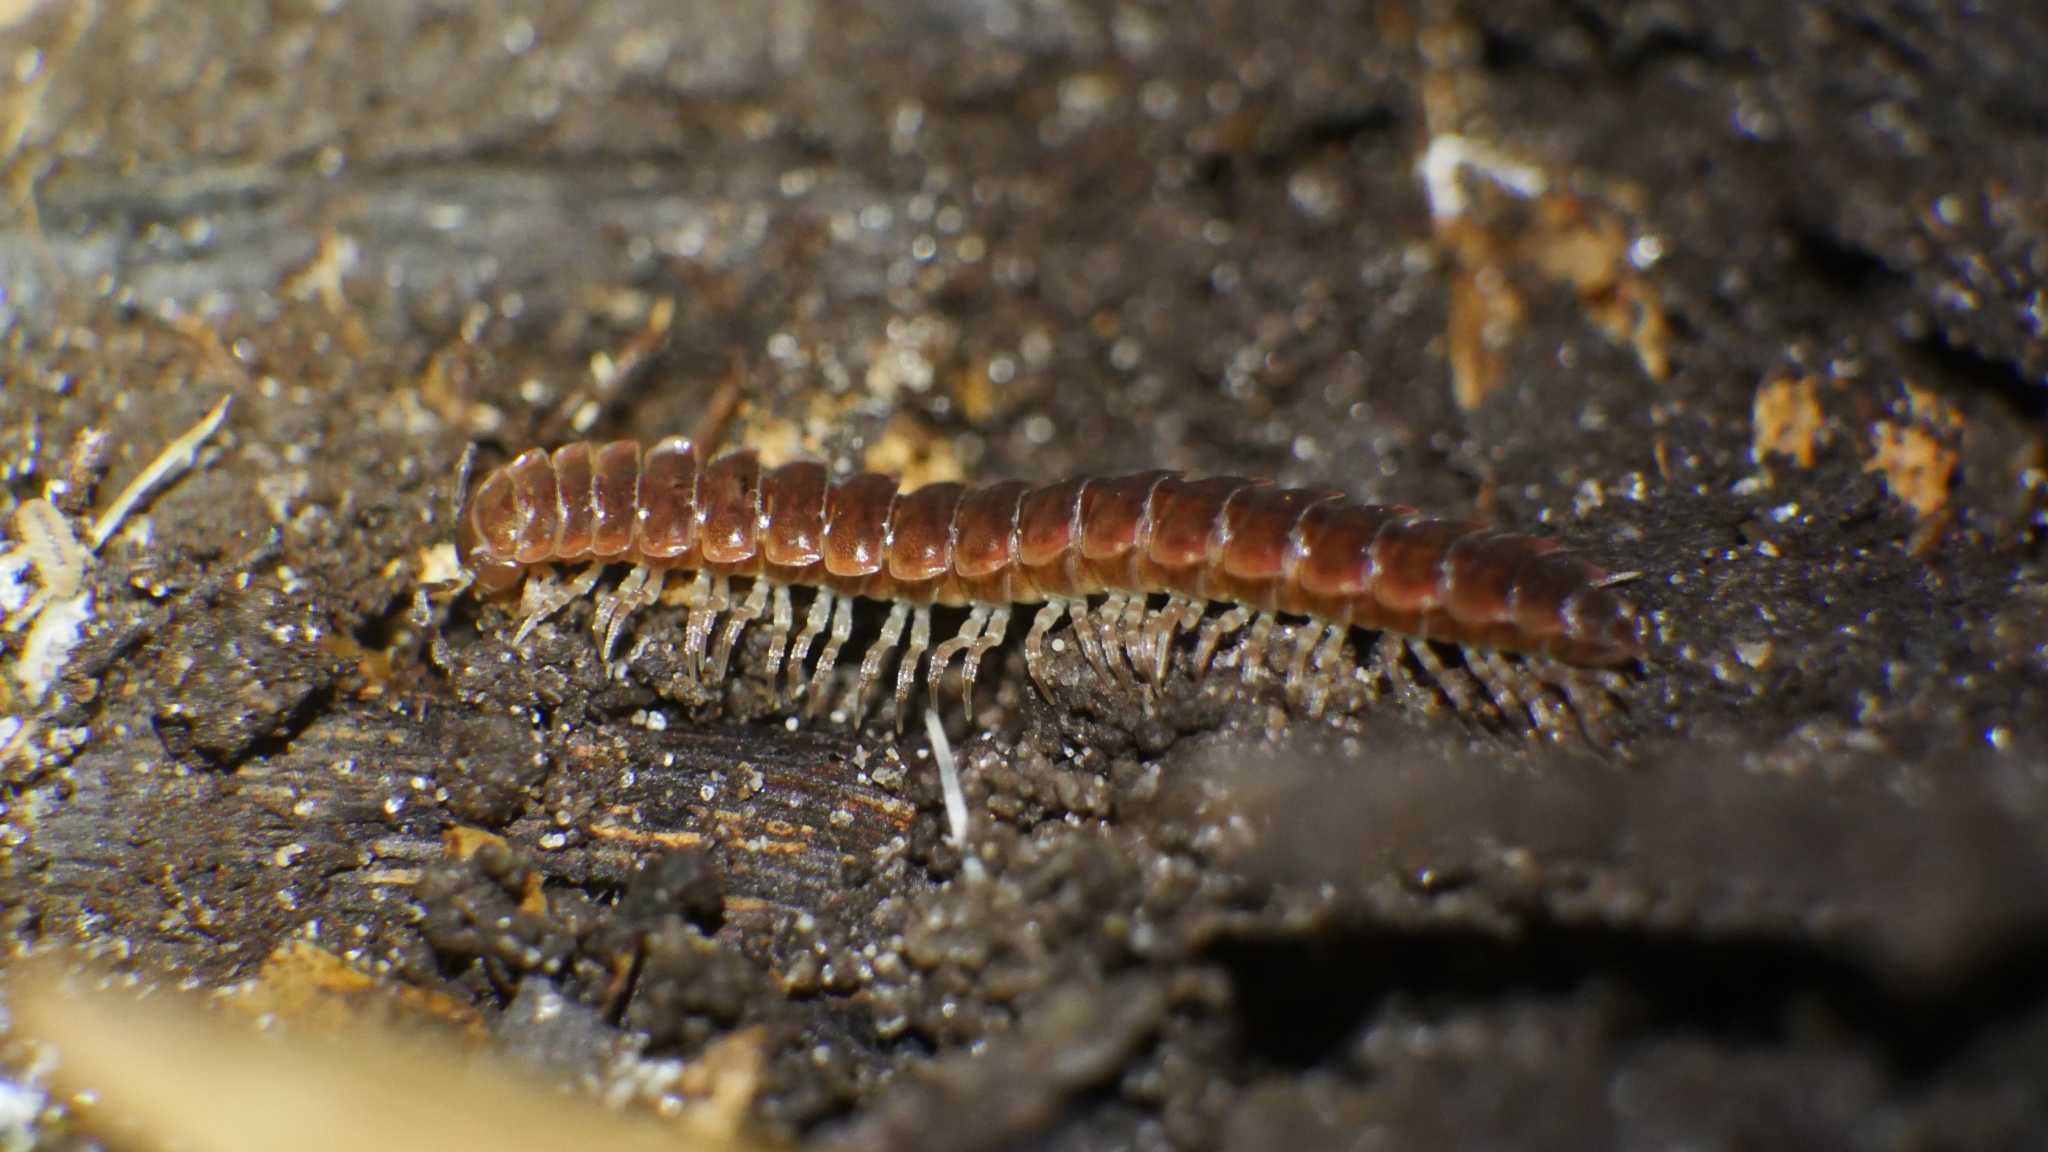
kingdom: Animalia
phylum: Arthropoda
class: Diplopoda
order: Polydesmida
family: Polydesmidae
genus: Pseudopolydesmus
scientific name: Pseudopolydesmus serratus
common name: Common pink flat-back millipede
